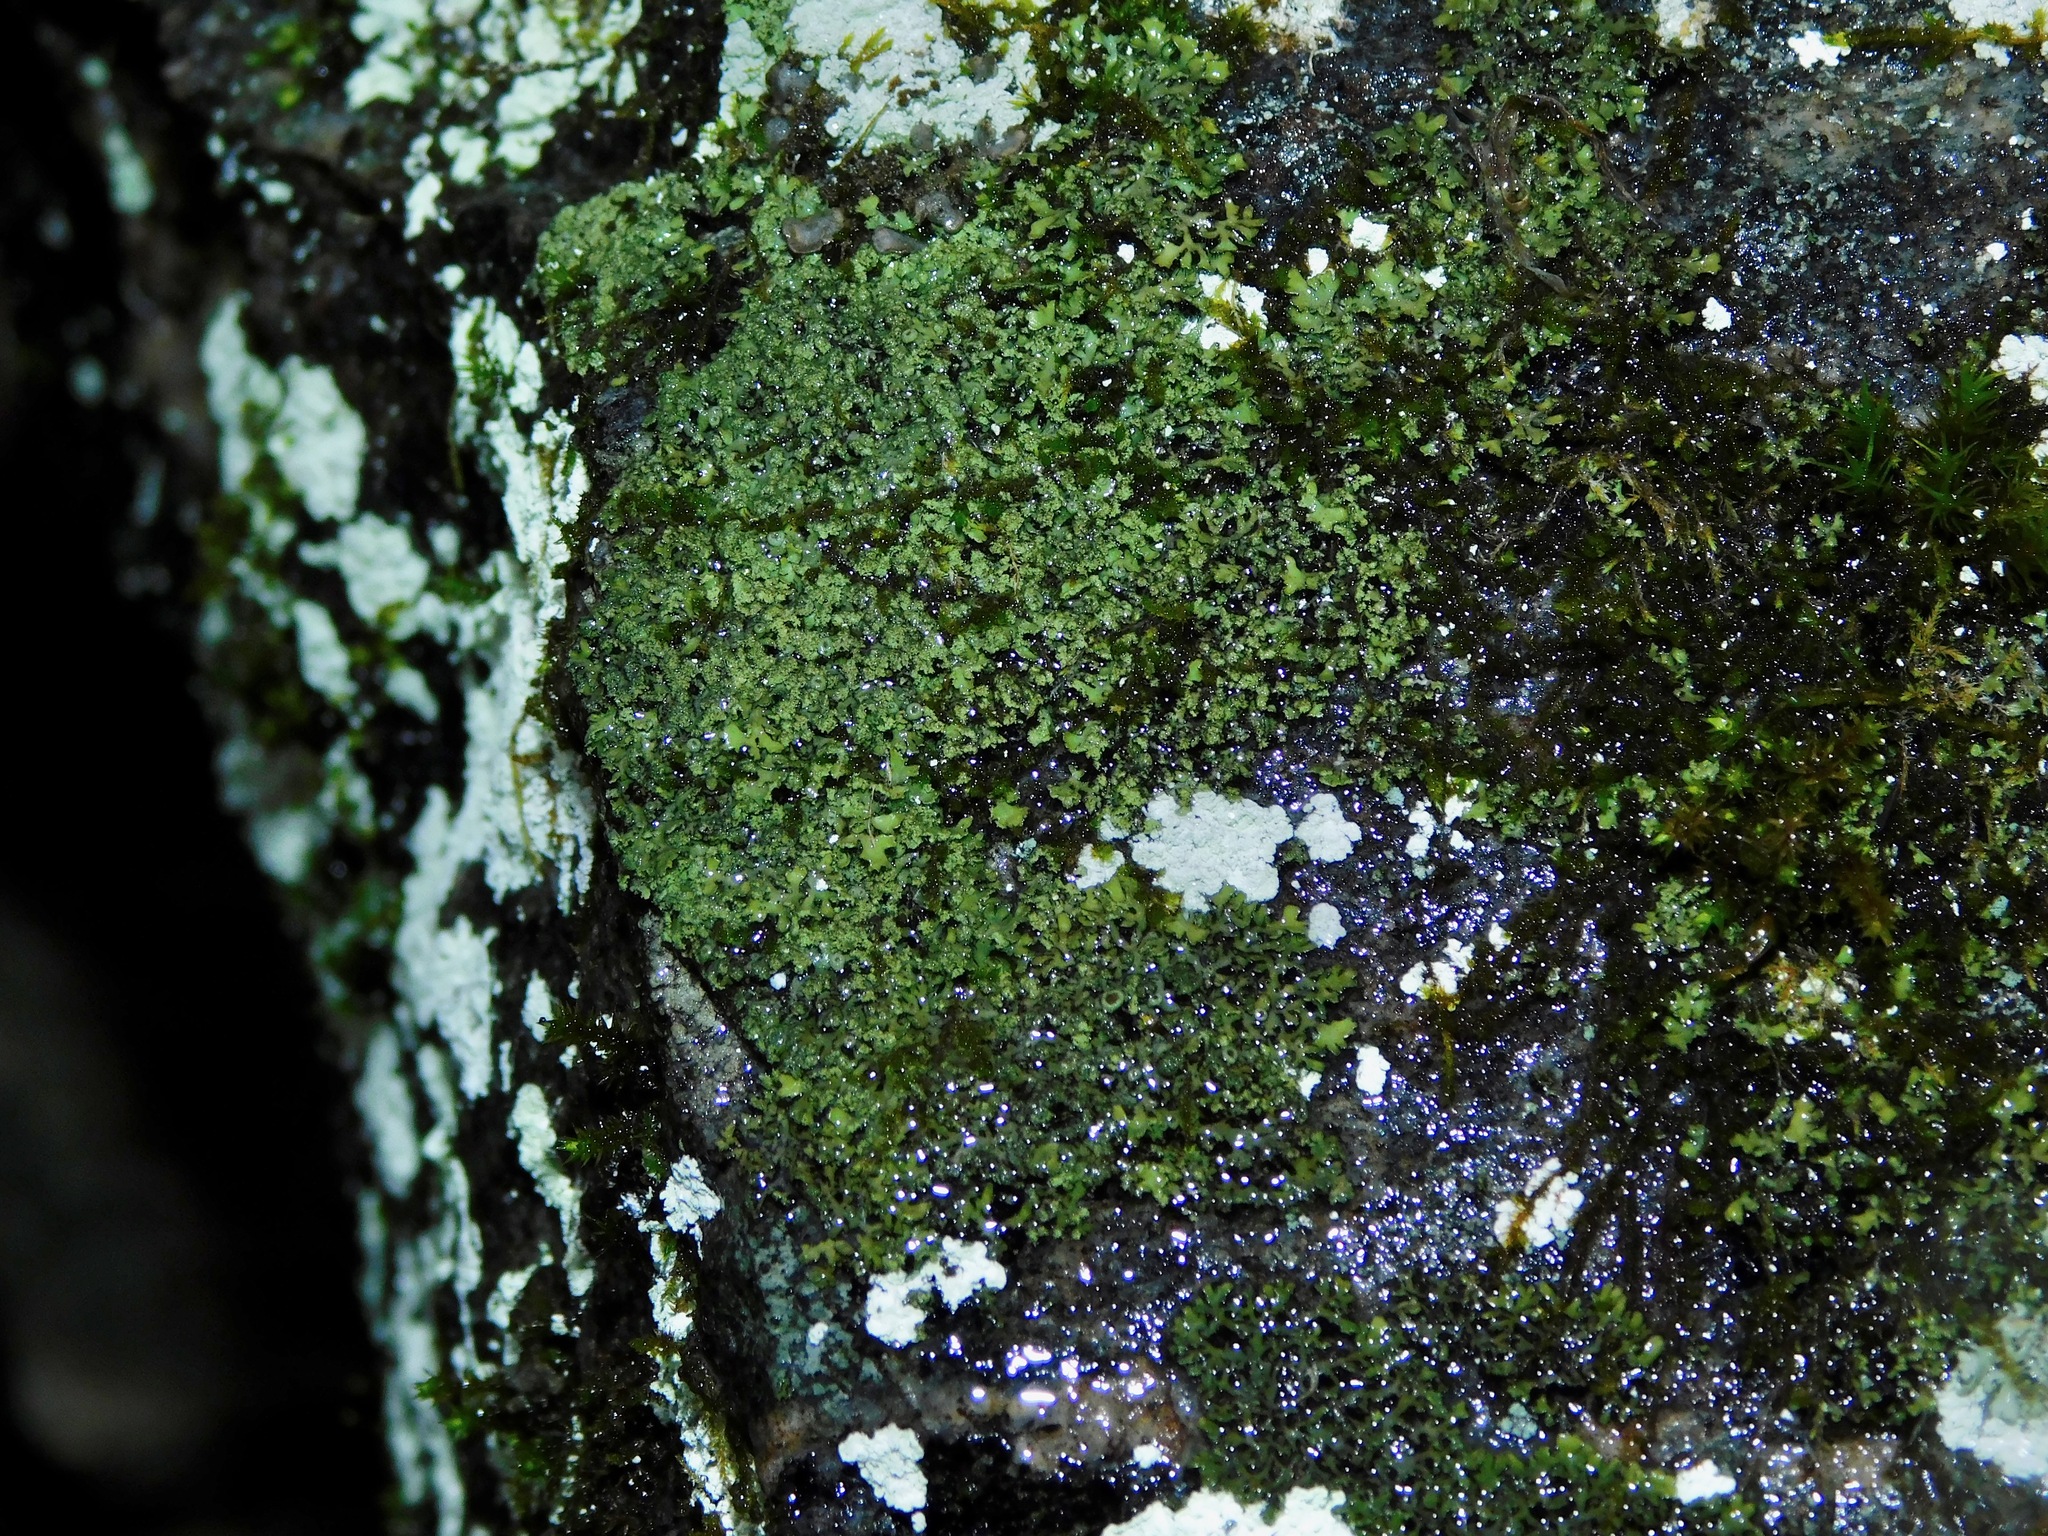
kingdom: Fungi
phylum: Ascomycota
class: Lecanoromycetes
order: Caliciales
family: Physciaceae
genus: Phaeophyscia
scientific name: Phaeophyscia ciliata
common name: Smooth shadow lichen
